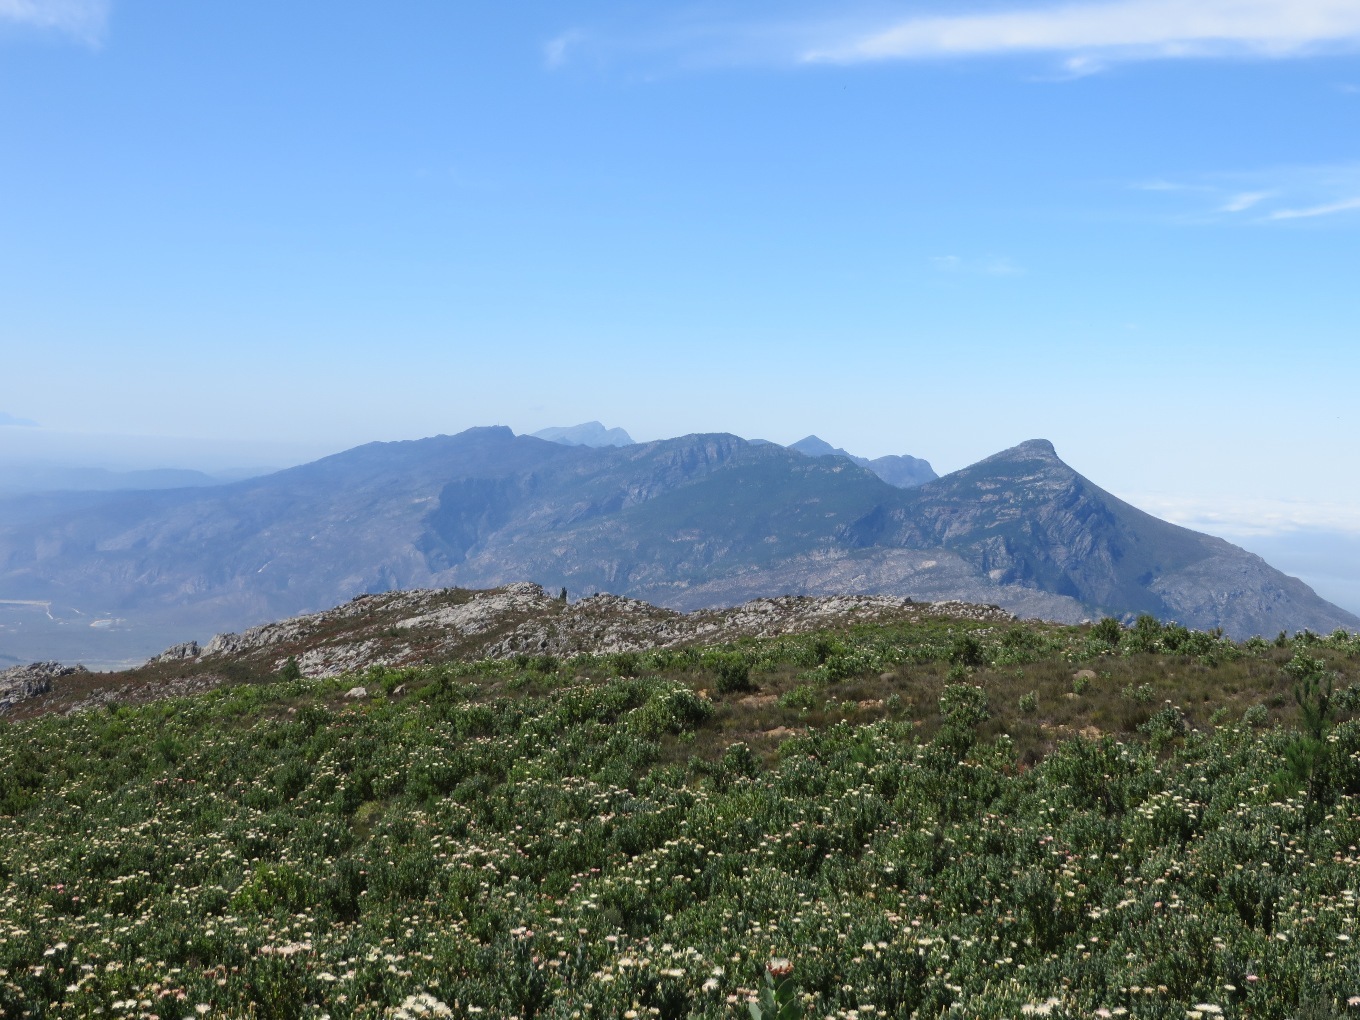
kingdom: Plantae
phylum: Tracheophyta
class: Magnoliopsida
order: Proteales
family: Proteaceae
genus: Protea
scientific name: Protea
